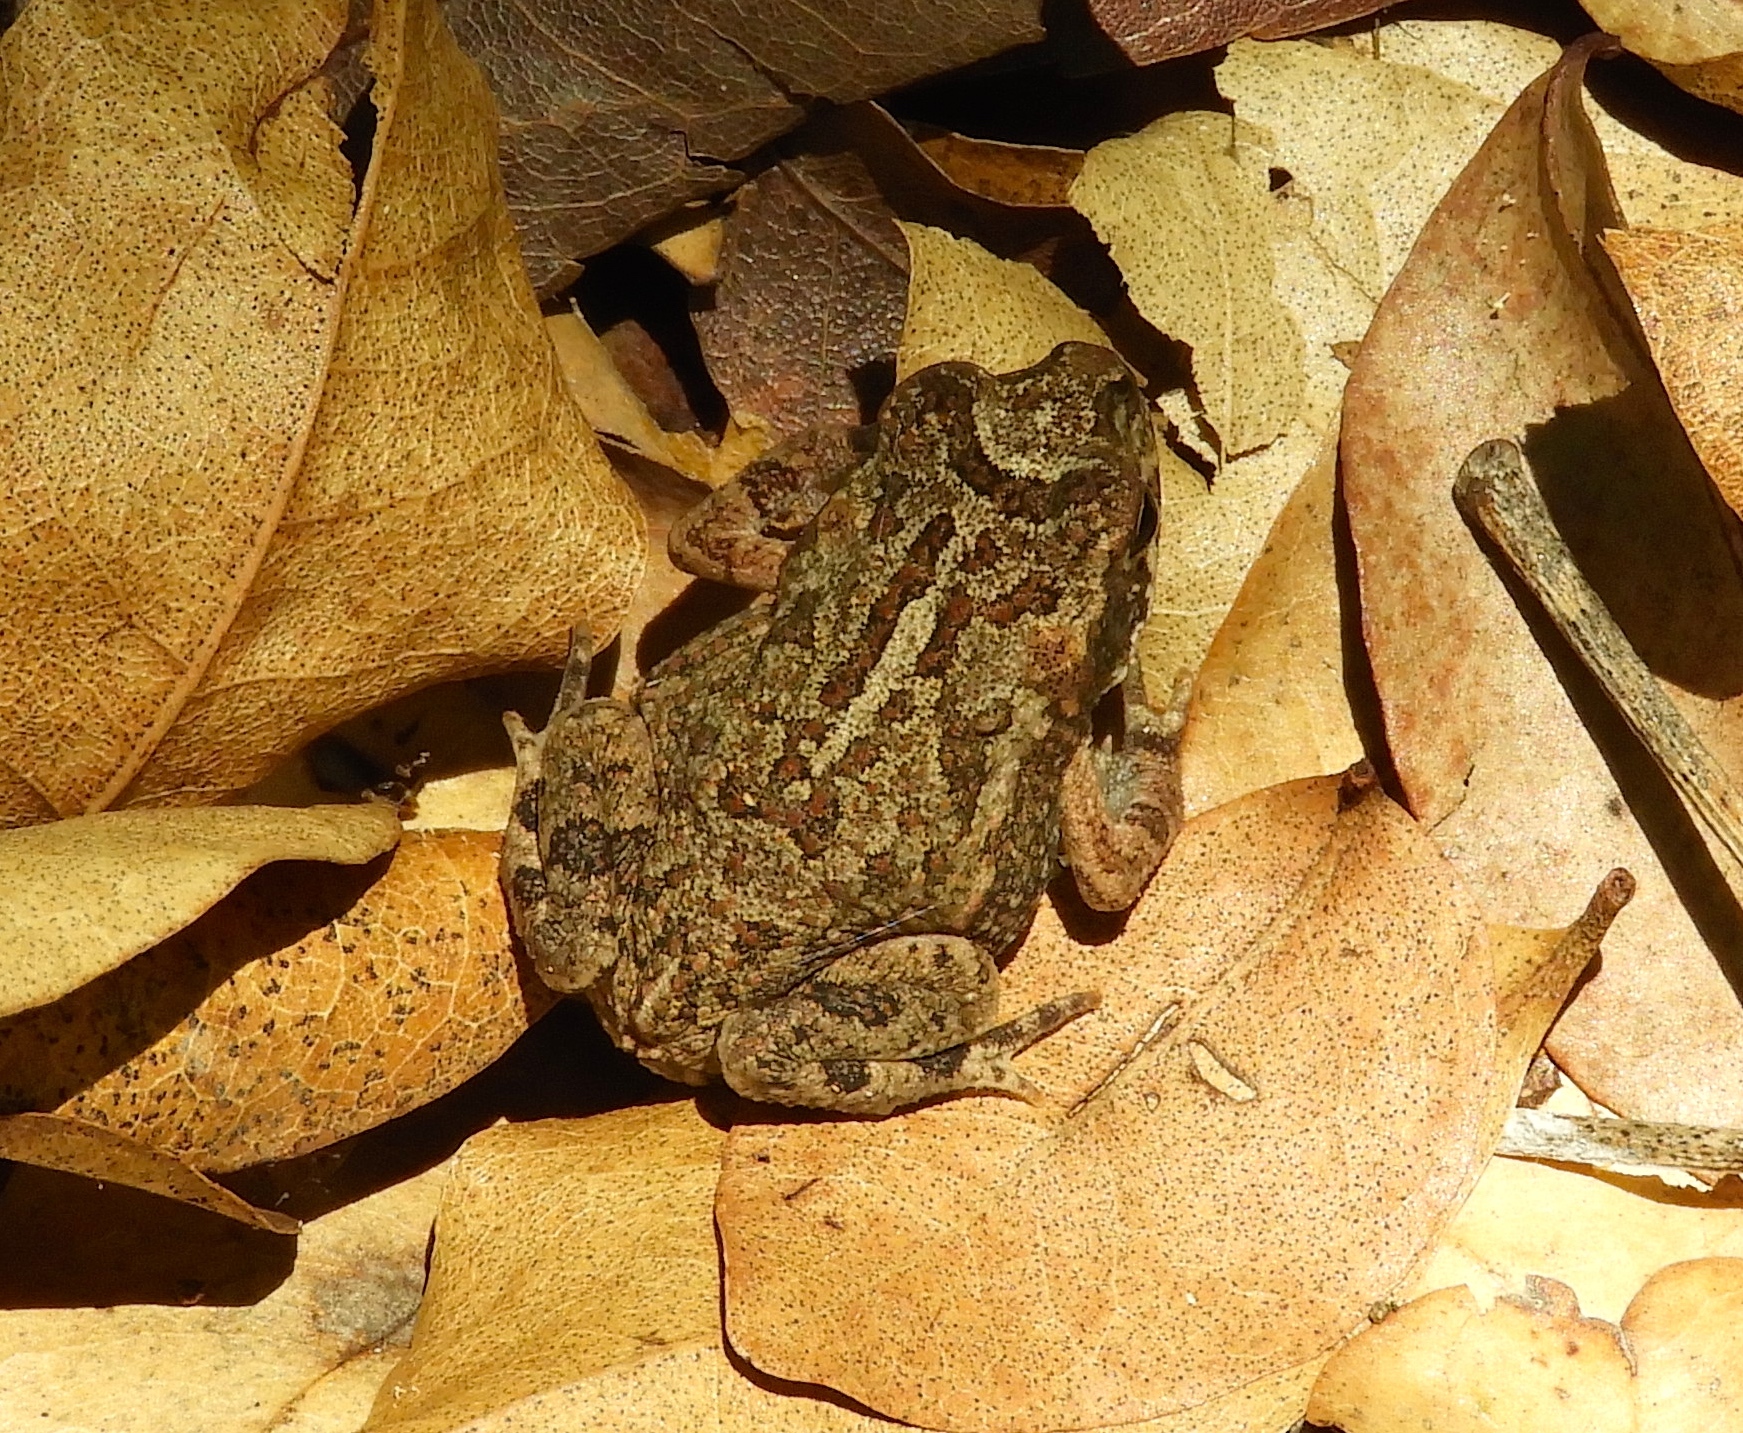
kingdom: Animalia
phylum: Chordata
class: Amphibia
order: Anura
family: Bufonidae
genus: Incilius
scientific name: Incilius mazatlanensis
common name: Sinaloa toad
